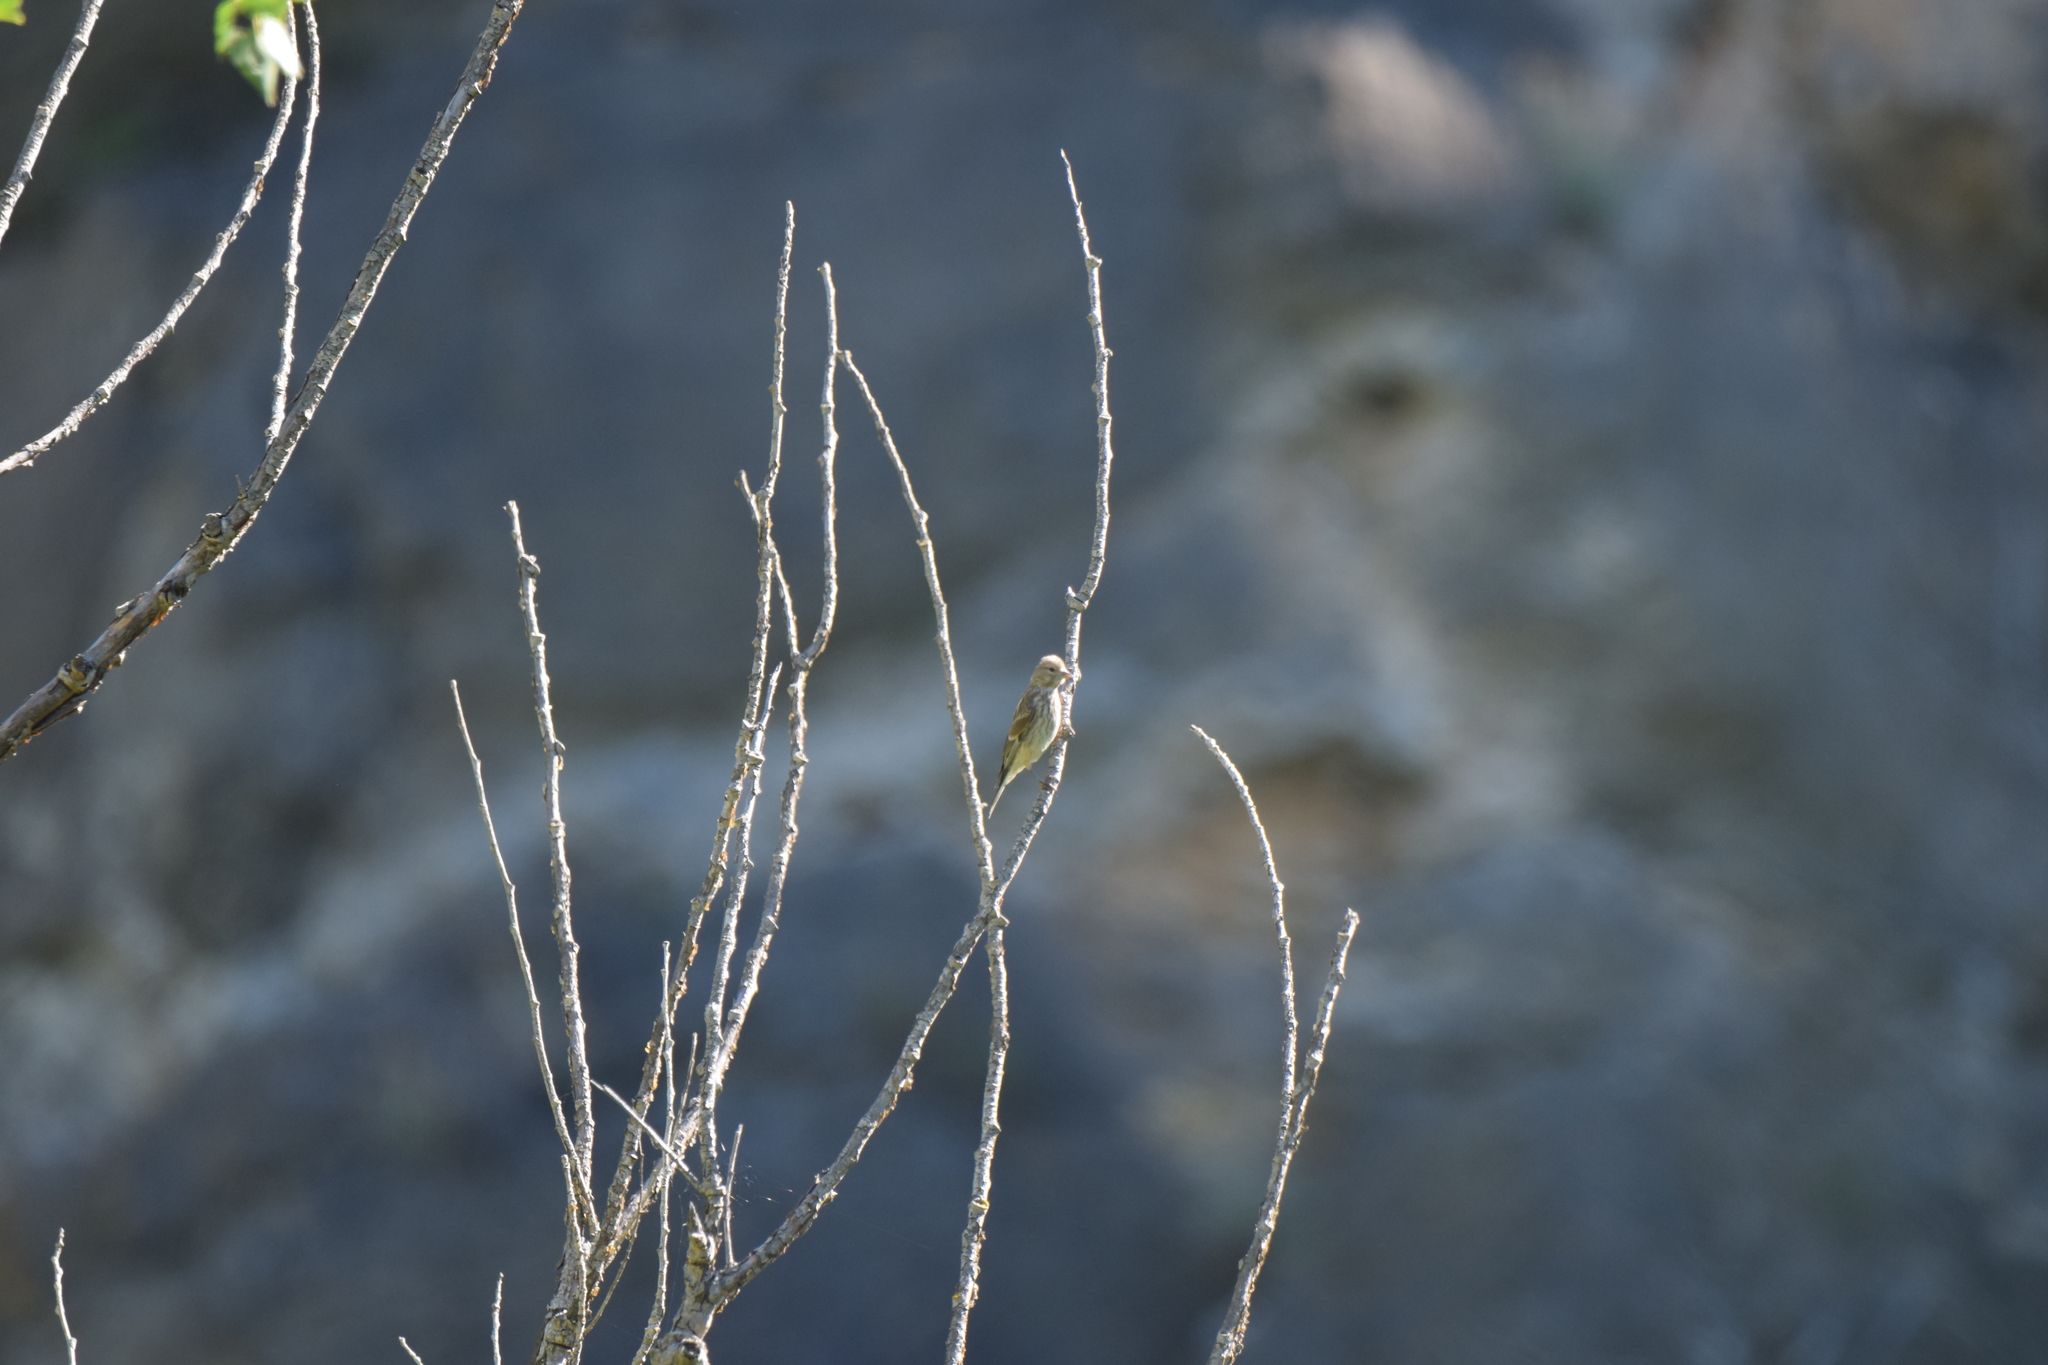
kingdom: Animalia
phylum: Chordata
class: Aves
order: Passeriformes
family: Fringillidae
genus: Linaria
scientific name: Linaria cannabina
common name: Common linnet
